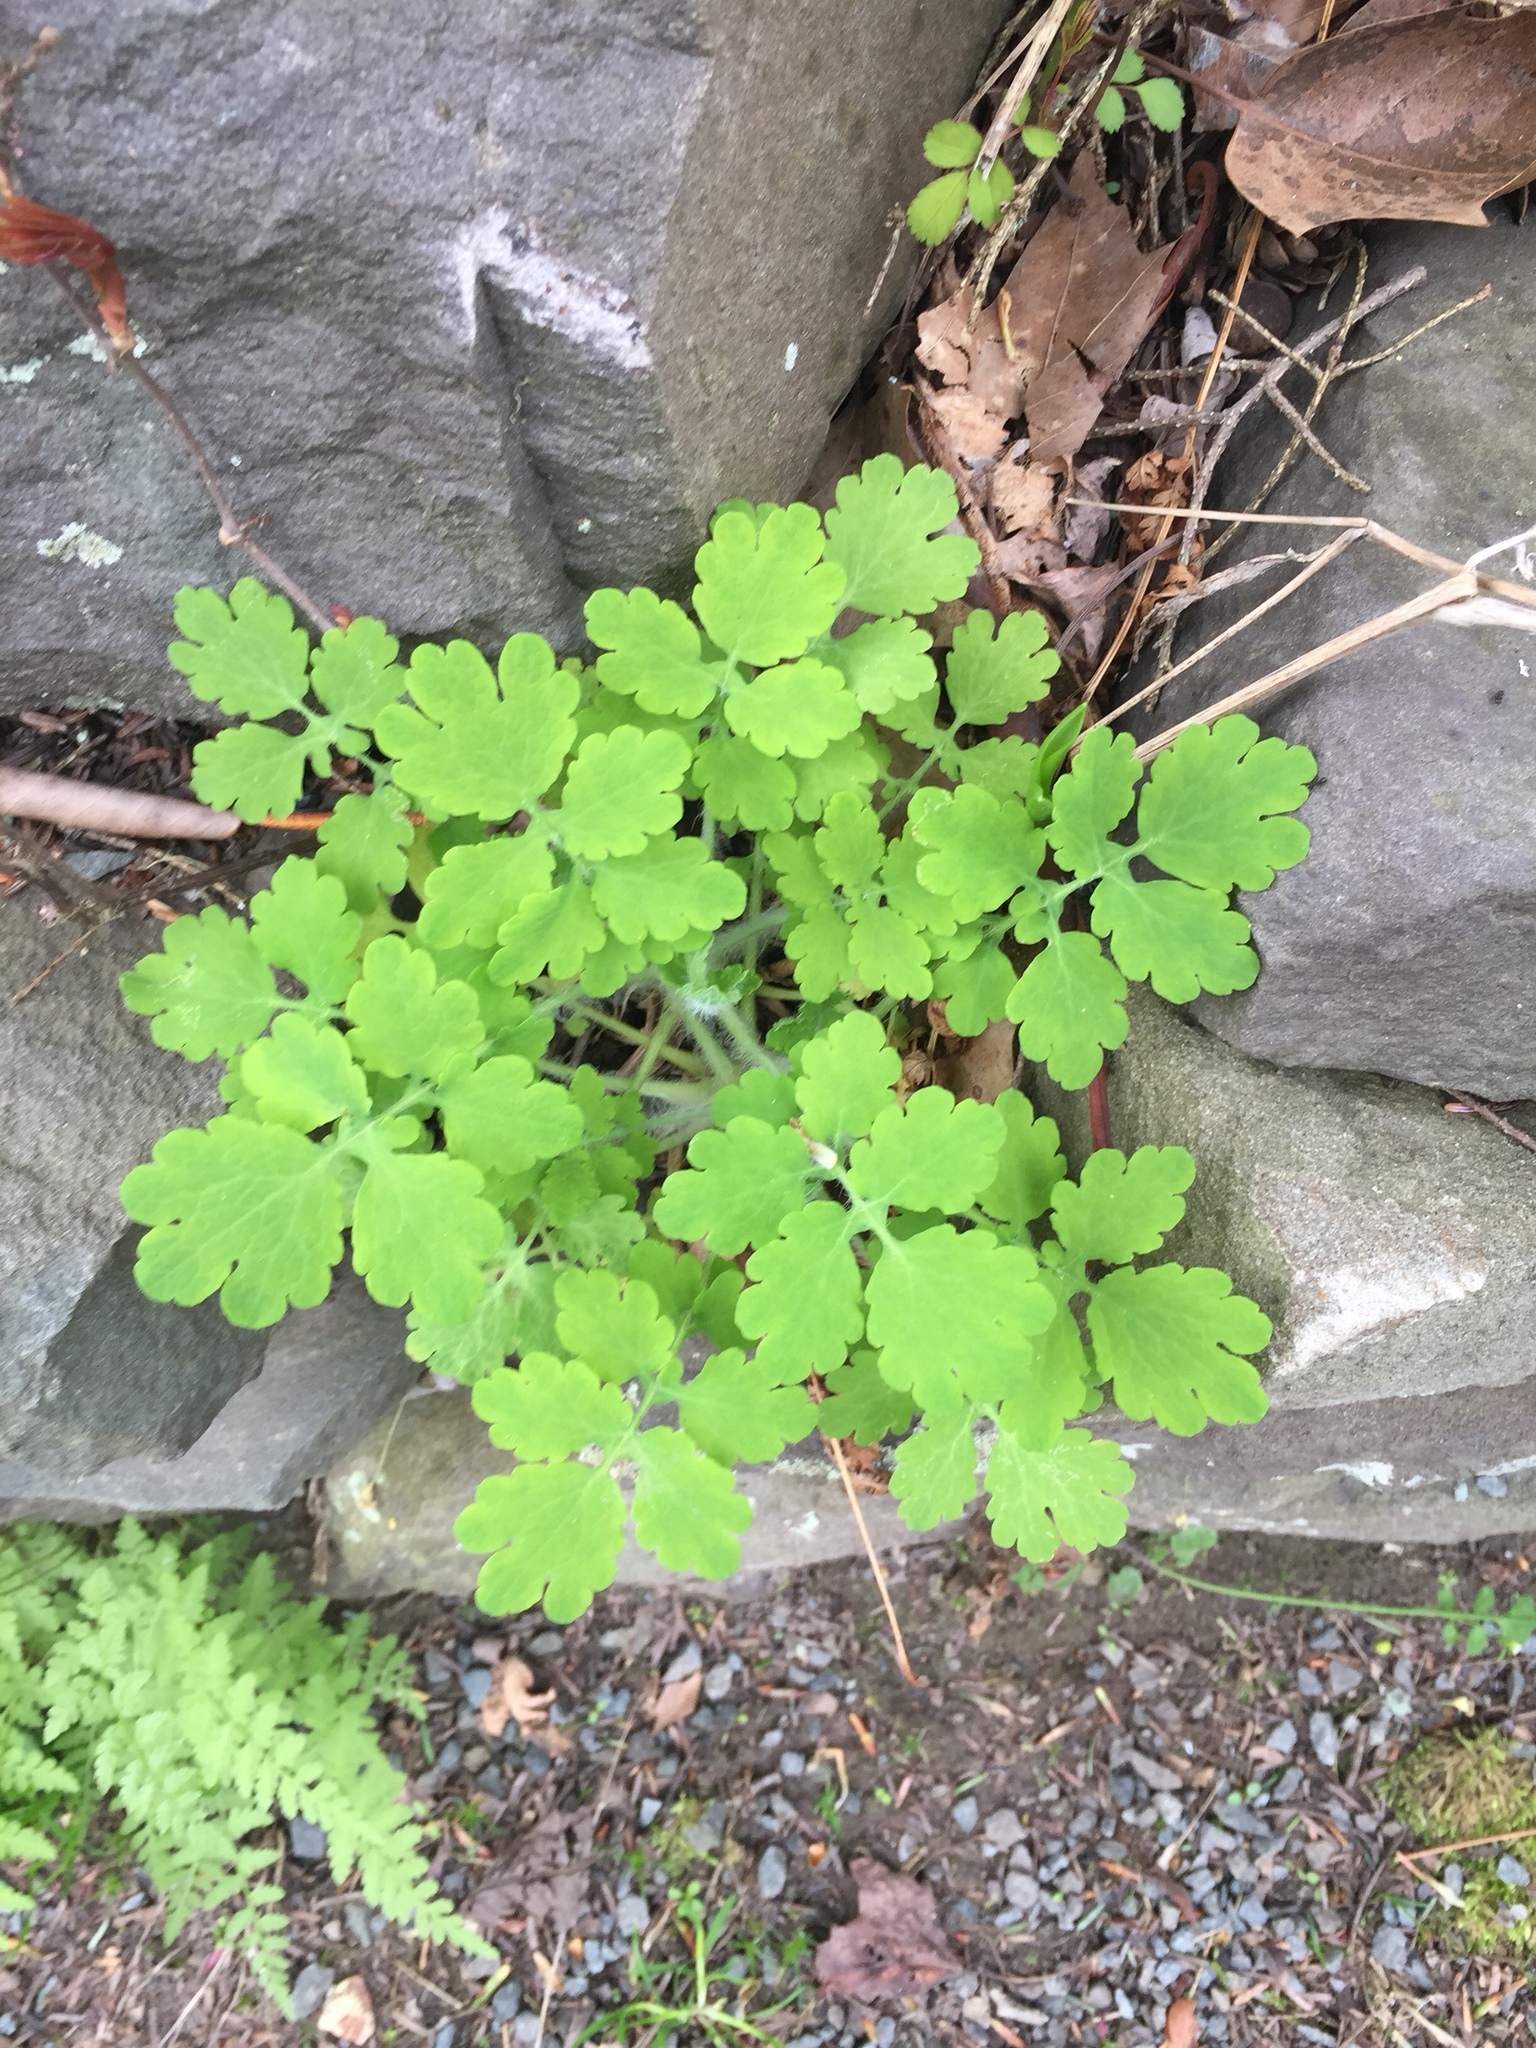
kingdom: Plantae
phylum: Tracheophyta
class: Magnoliopsida
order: Ranunculales
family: Papaveraceae
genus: Chelidonium
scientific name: Chelidonium majus
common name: Greater celandine
